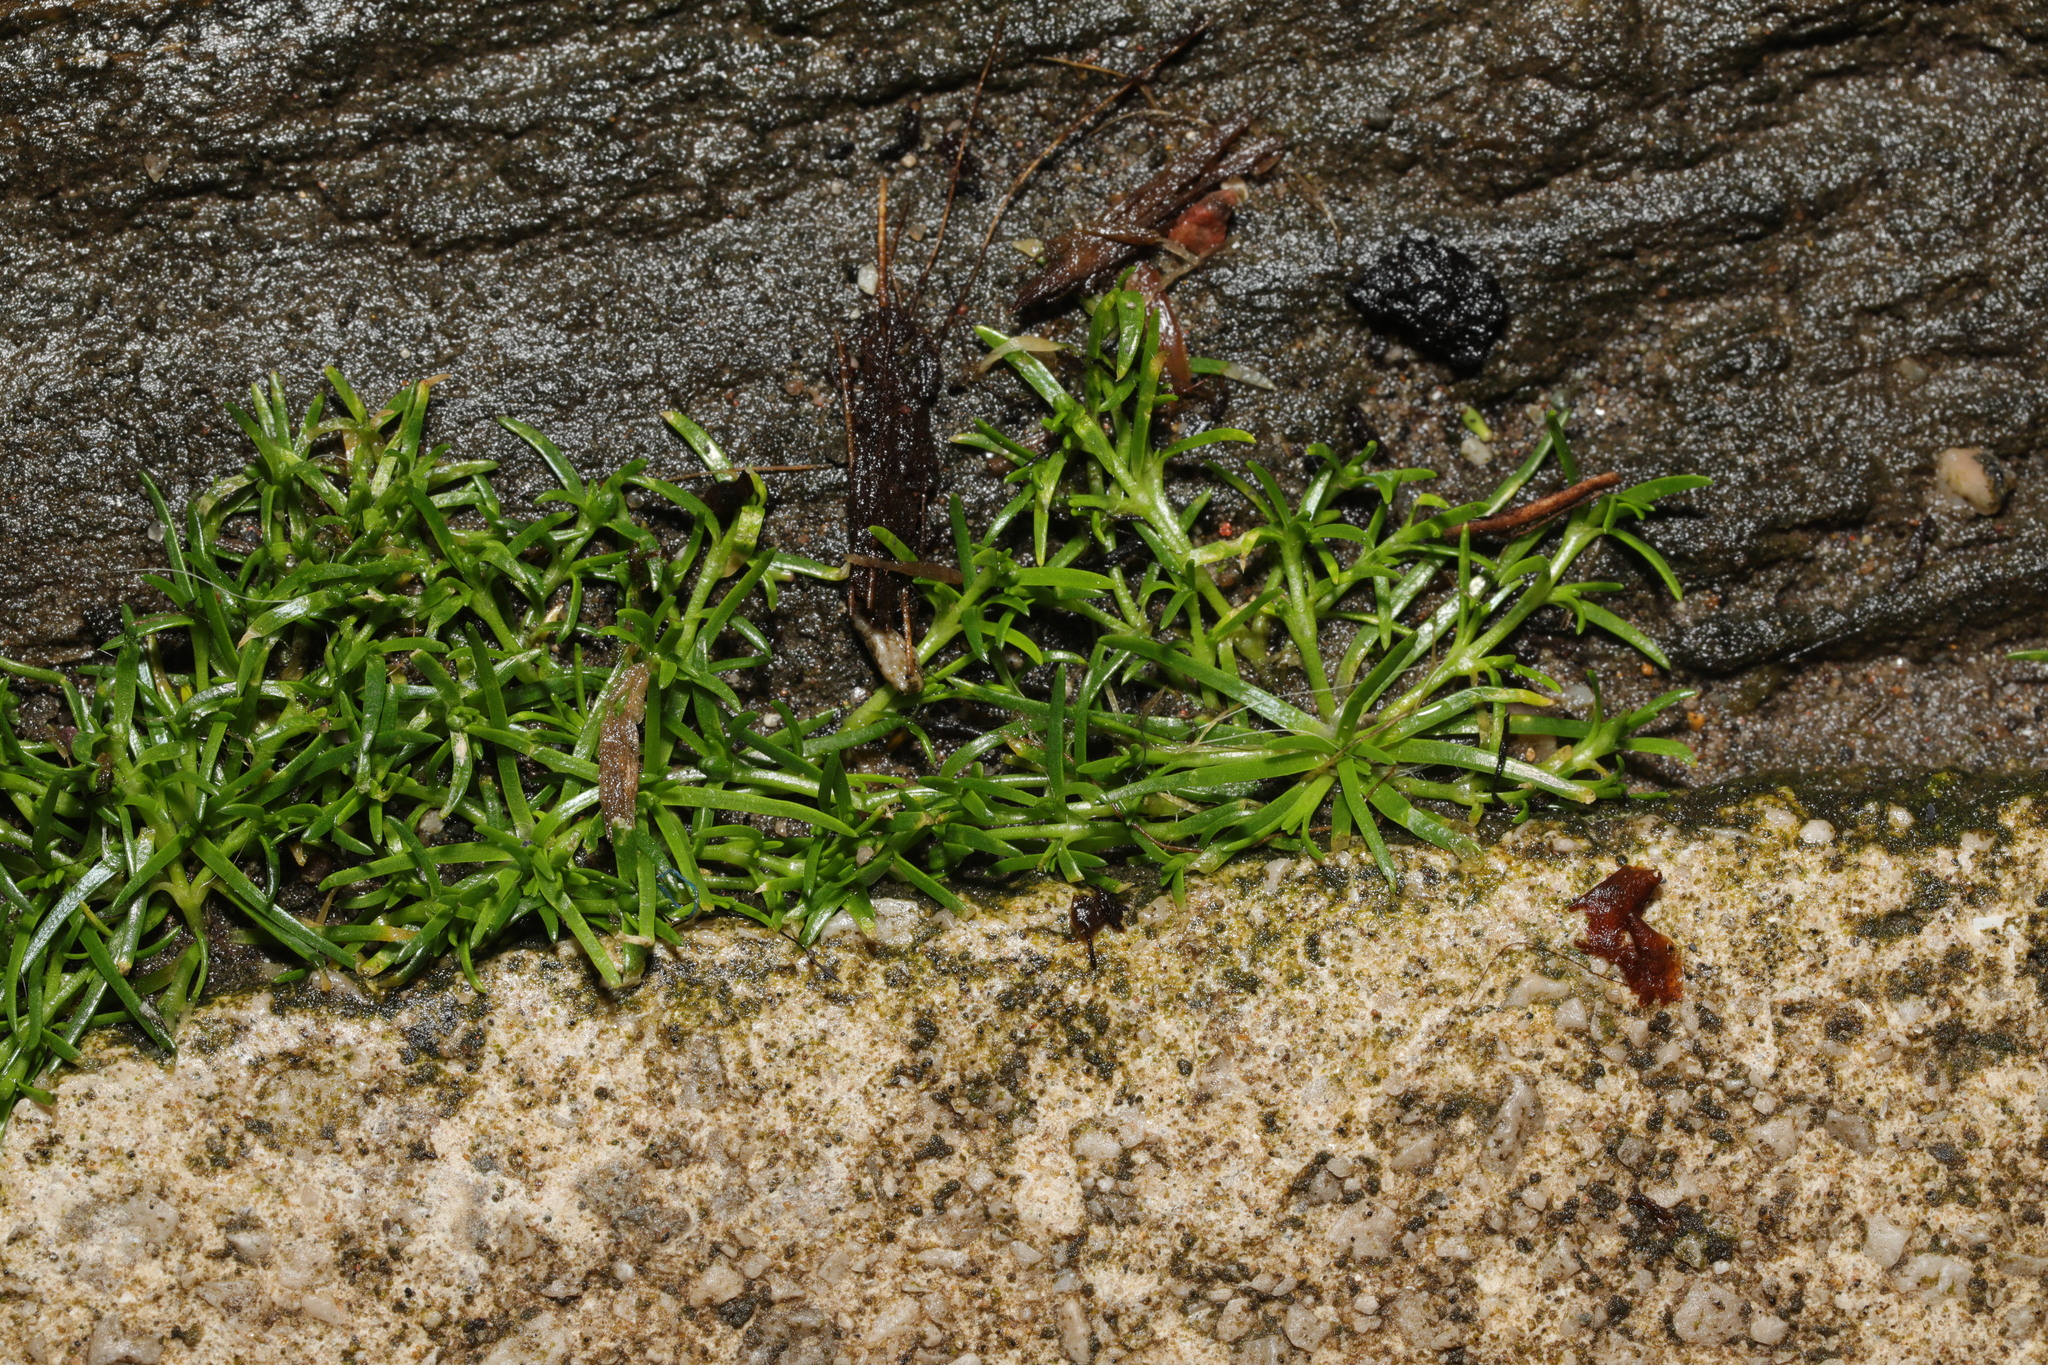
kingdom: Plantae
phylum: Tracheophyta
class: Magnoliopsida
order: Caryophyllales
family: Caryophyllaceae
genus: Sagina
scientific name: Sagina procumbens
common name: Procumbent pearlwort
